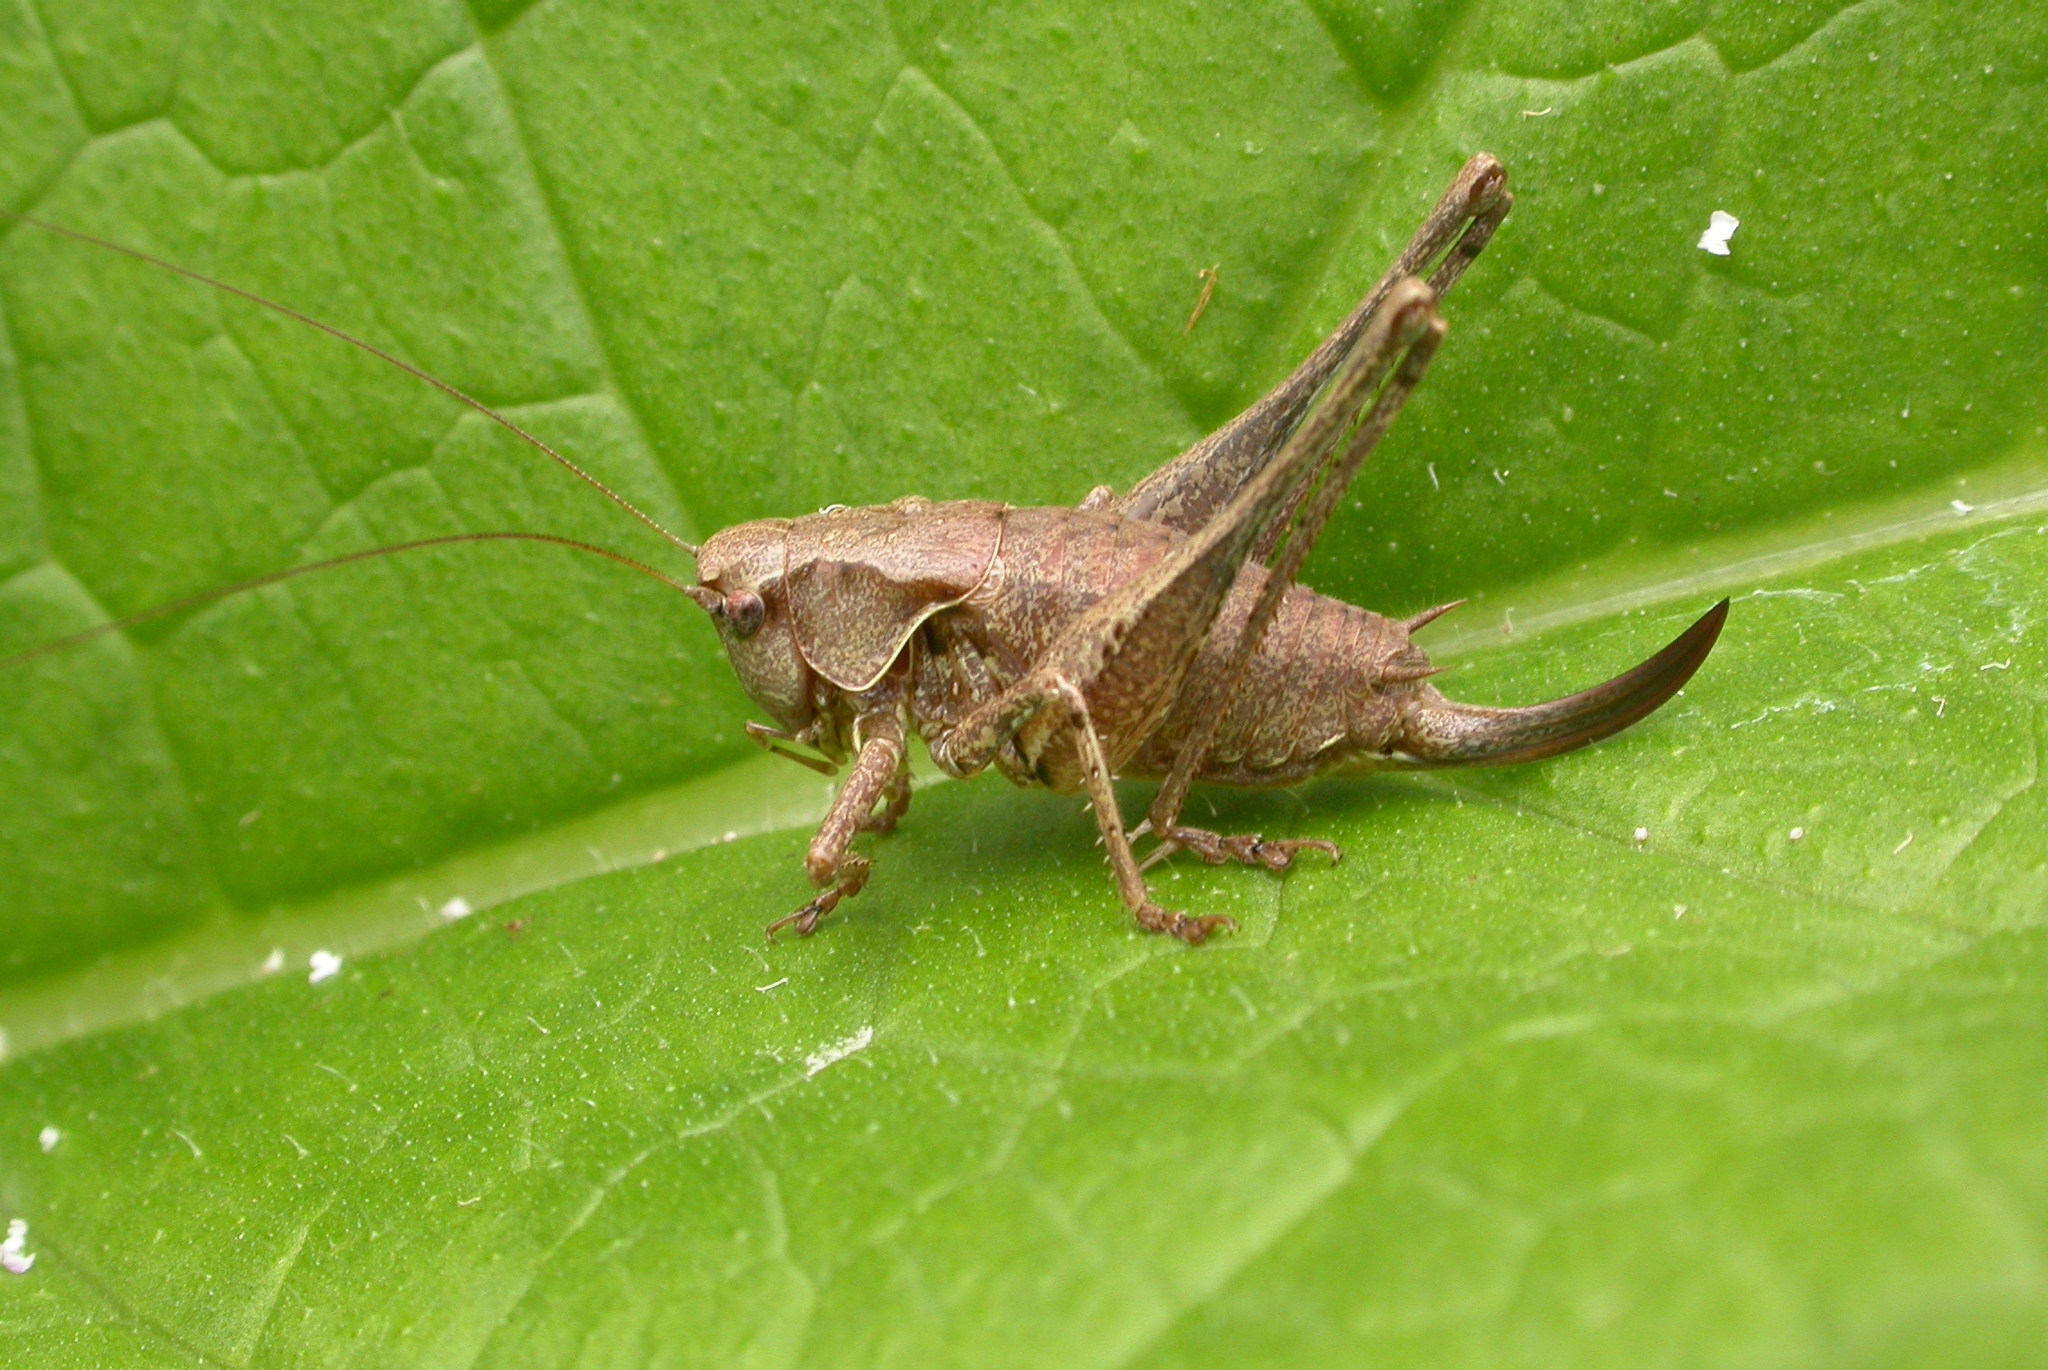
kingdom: Animalia
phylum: Arthropoda
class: Insecta
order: Orthoptera
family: Tettigoniidae
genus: Pholidoptera
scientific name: Pholidoptera griseoaptera
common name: Dark bush-cricket
